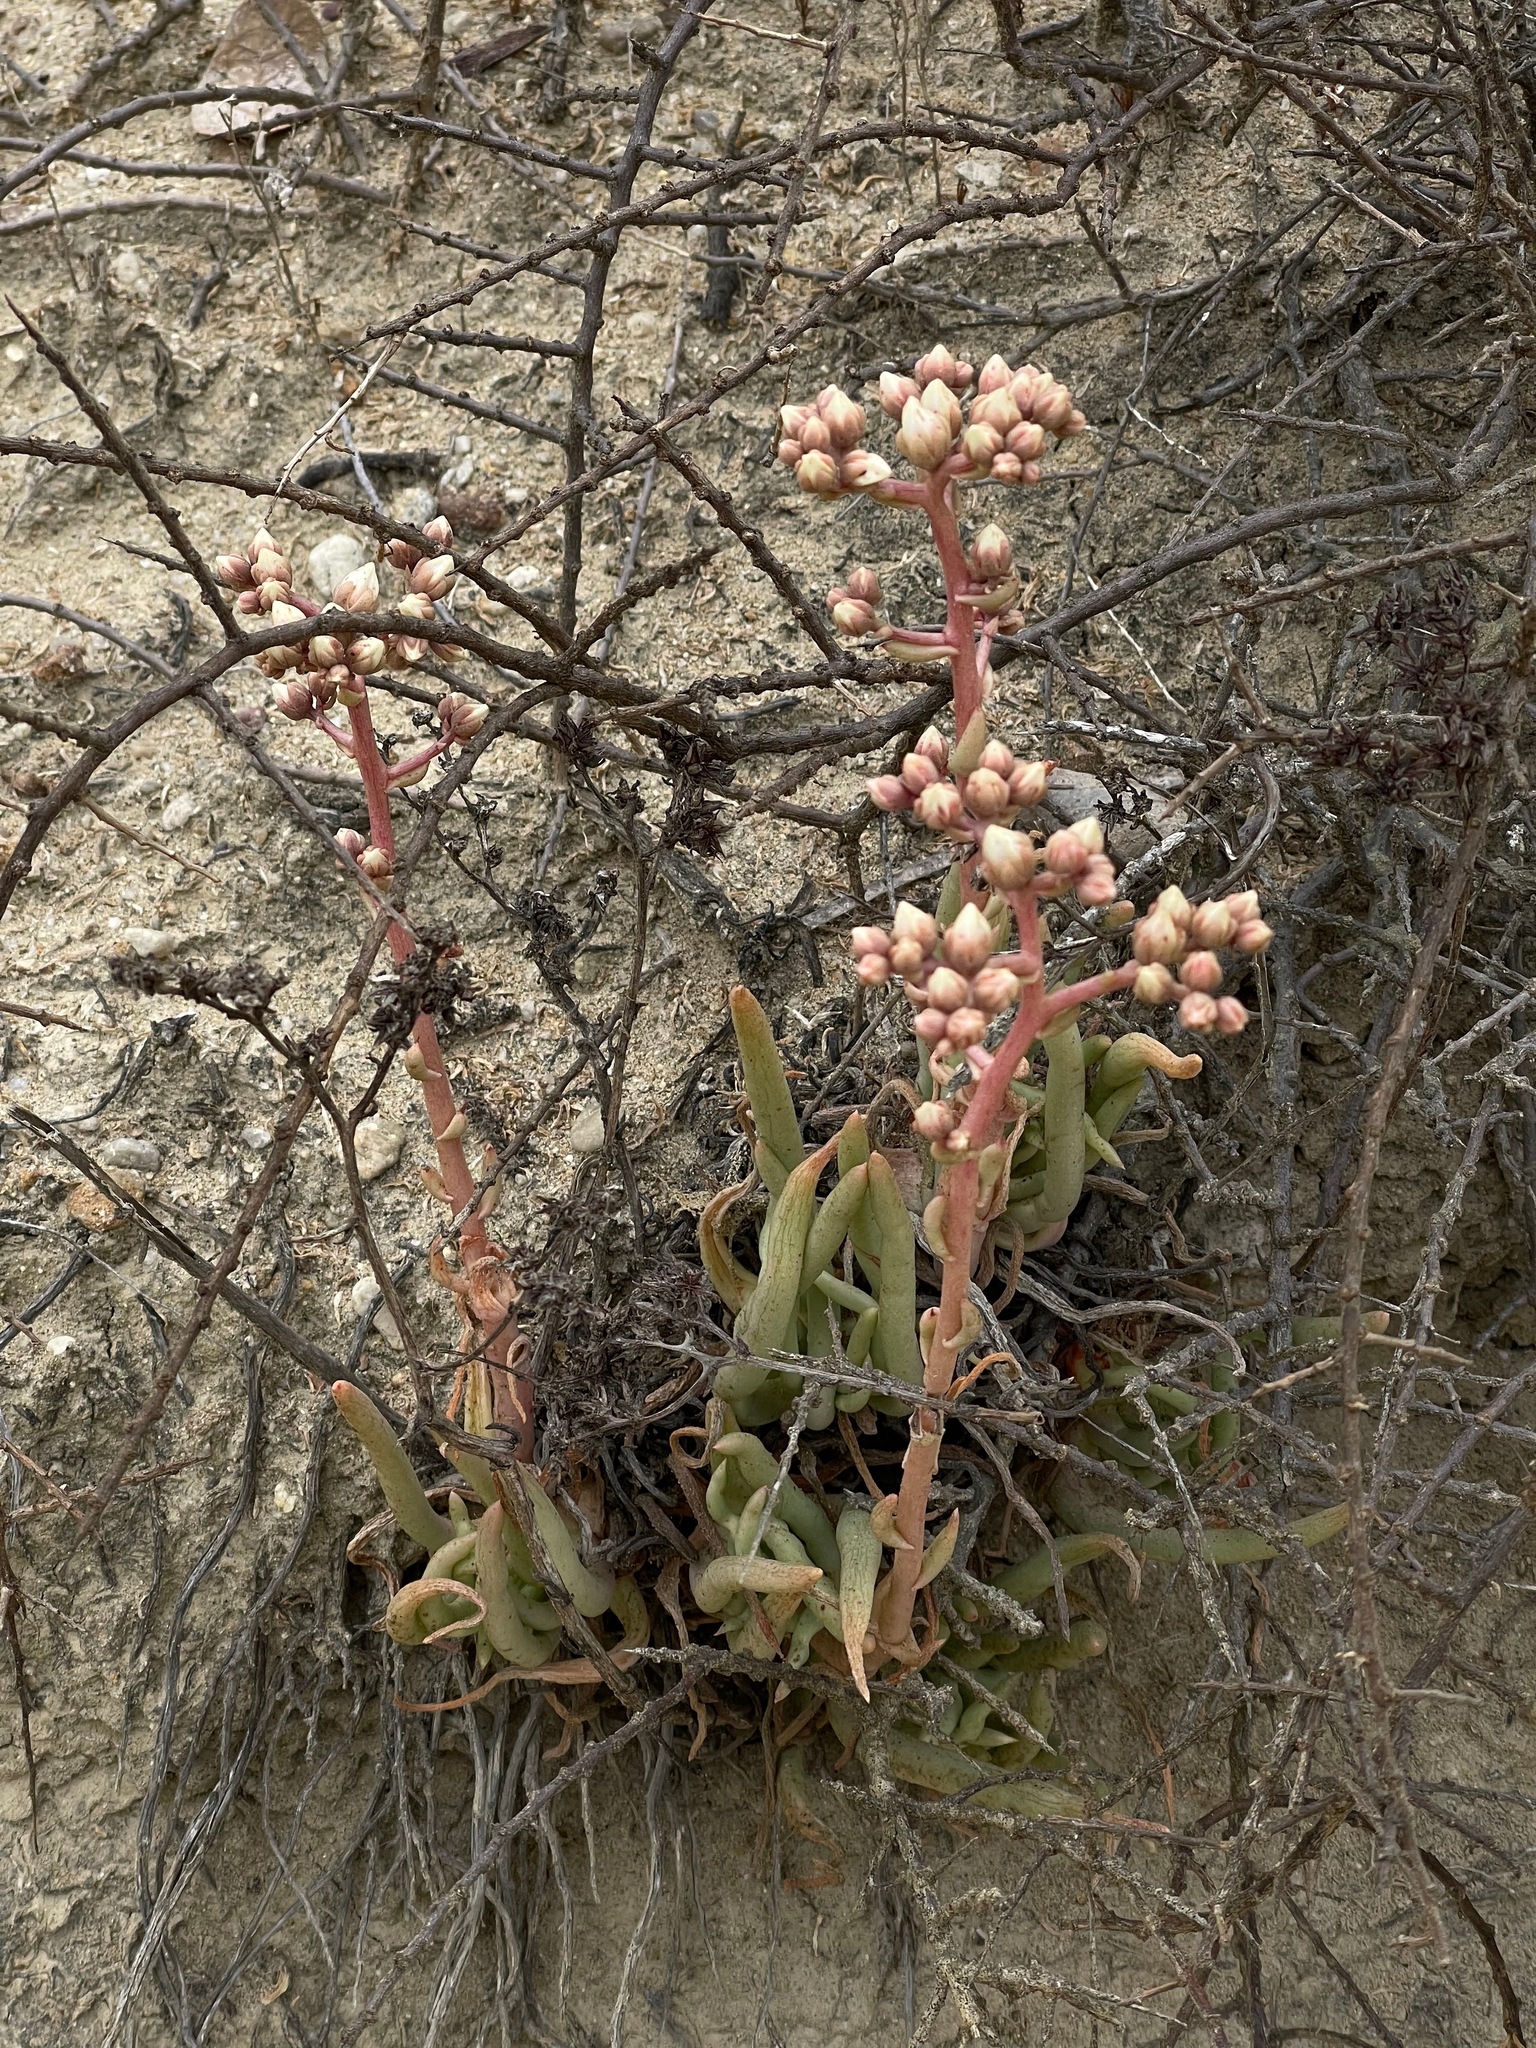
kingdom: Plantae
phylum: Tracheophyta
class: Magnoliopsida
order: Saxifragales
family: Crassulaceae
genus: Dudleya
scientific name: Dudleya edulis
